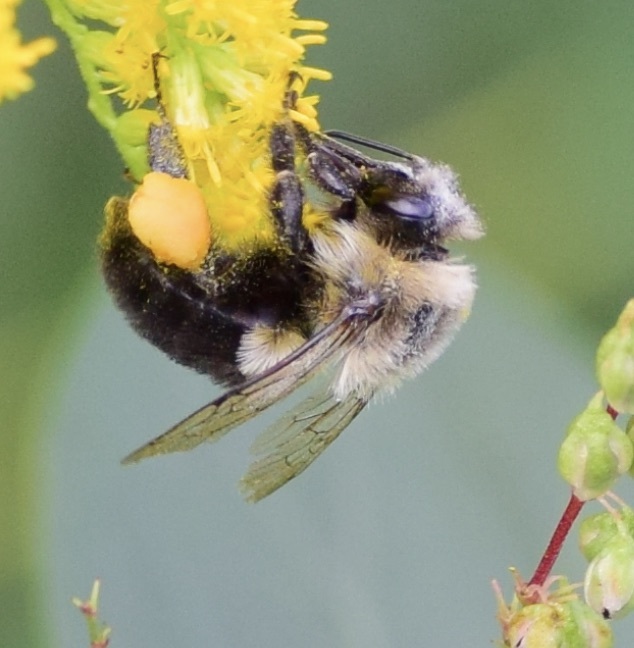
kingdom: Animalia
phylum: Arthropoda
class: Insecta
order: Hymenoptera
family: Apidae
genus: Bombus
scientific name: Bombus impatiens
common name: Common eastern bumble bee
